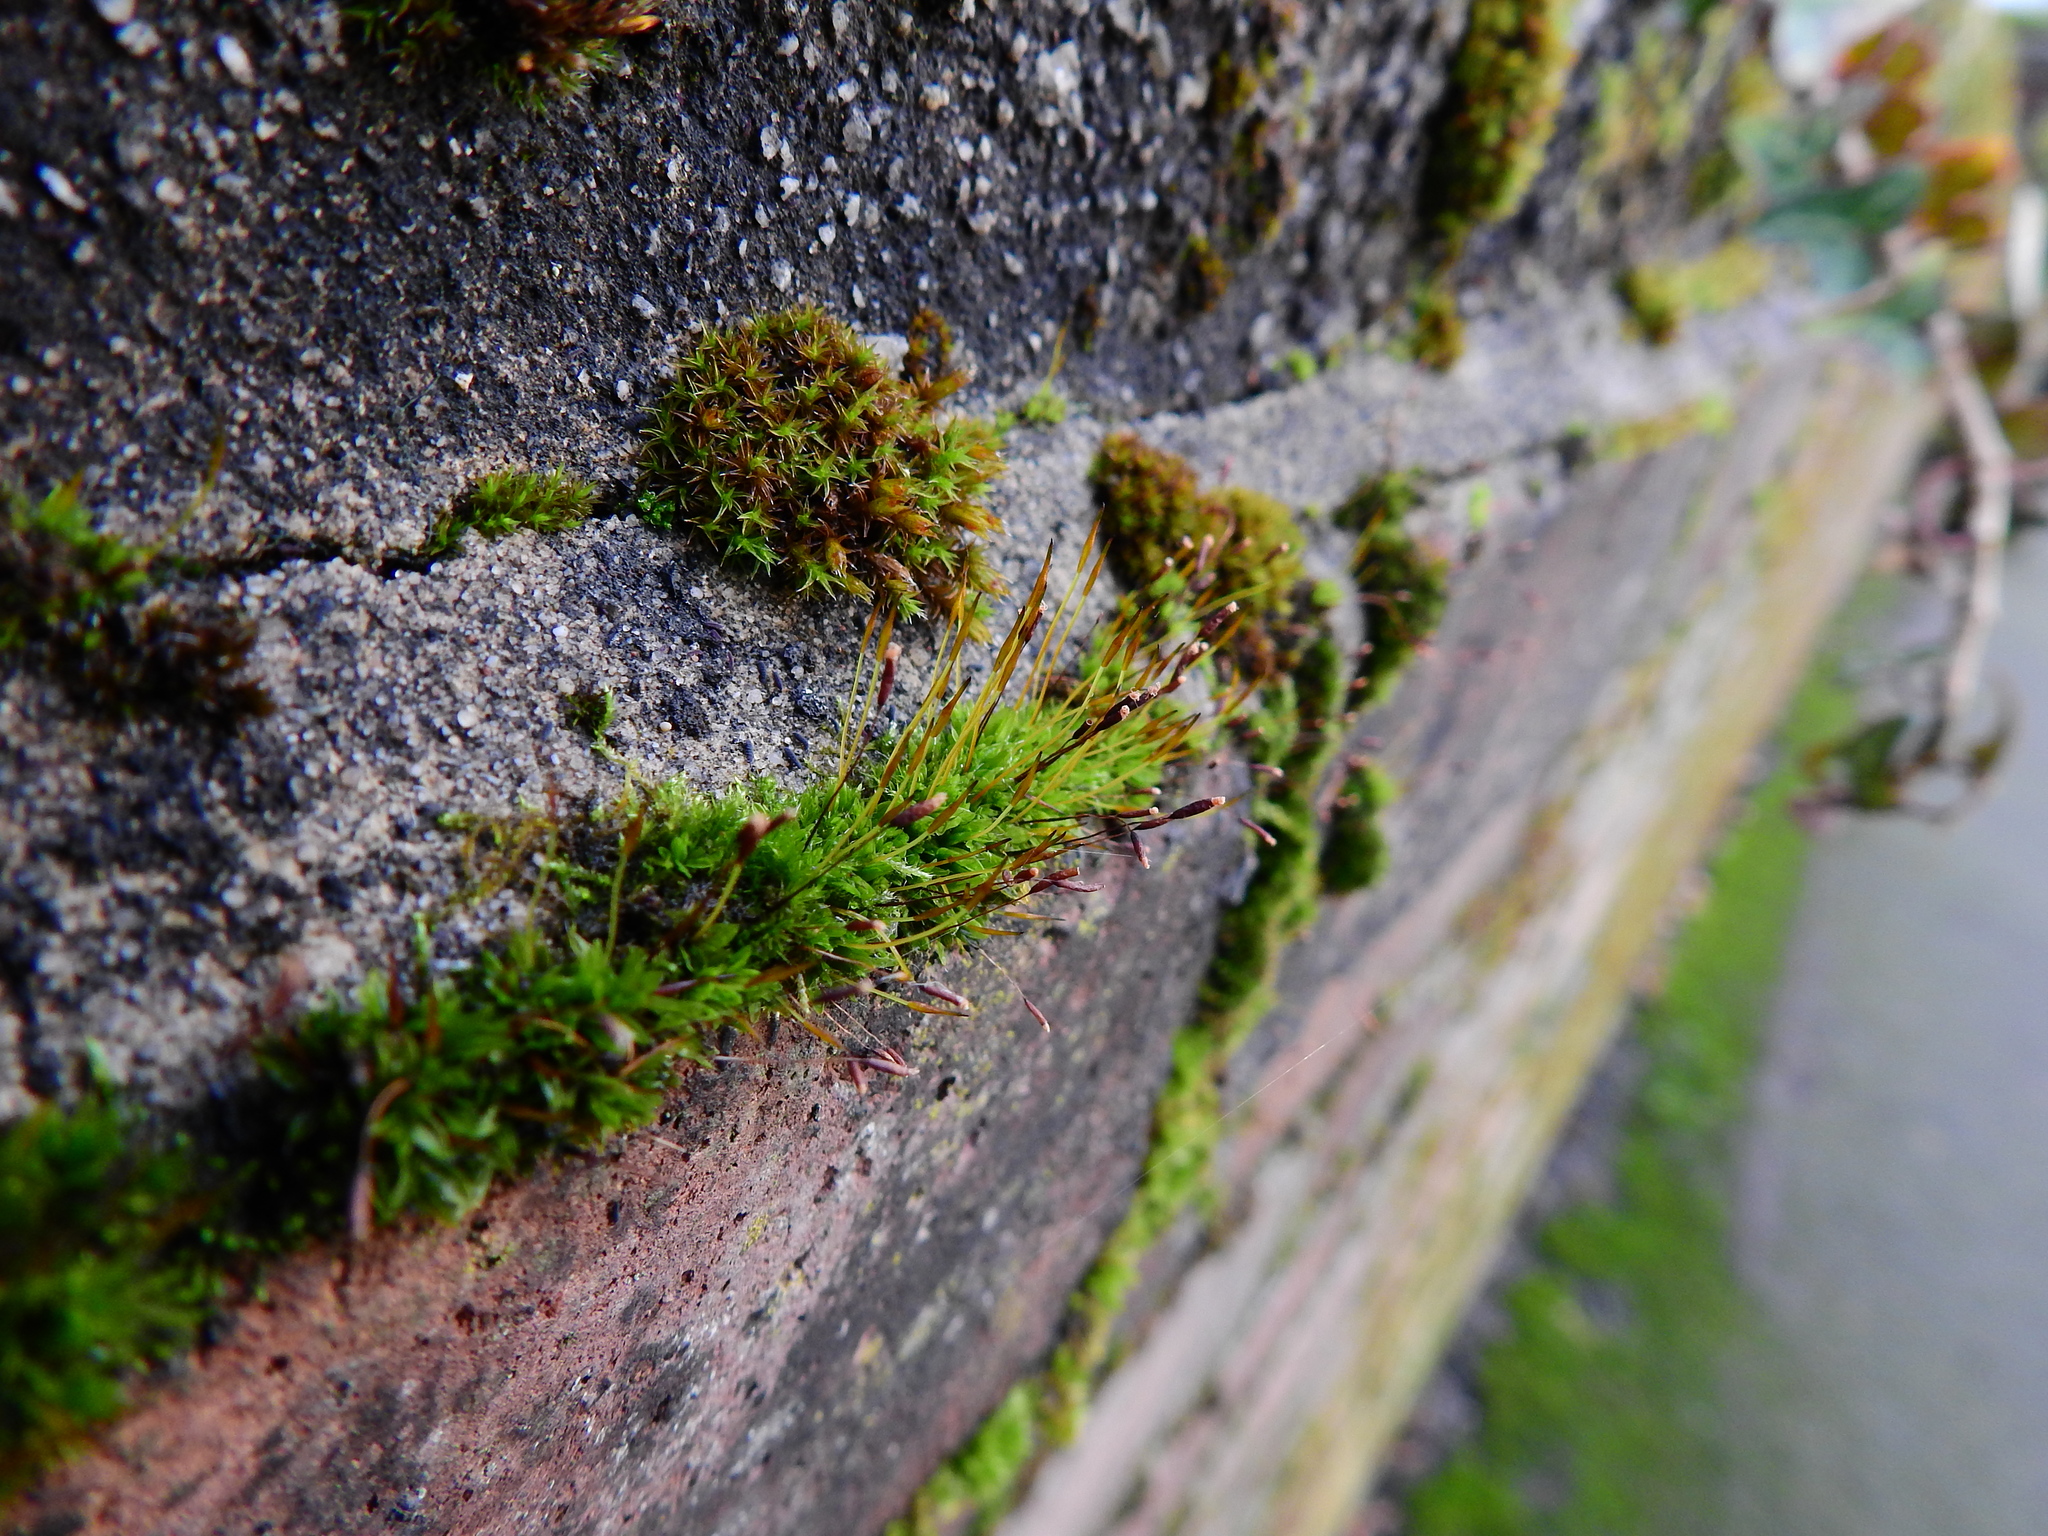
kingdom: Plantae
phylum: Bryophyta
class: Bryopsida
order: Pottiales
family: Pottiaceae
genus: Tortula
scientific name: Tortula muralis
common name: Wall screw-moss
